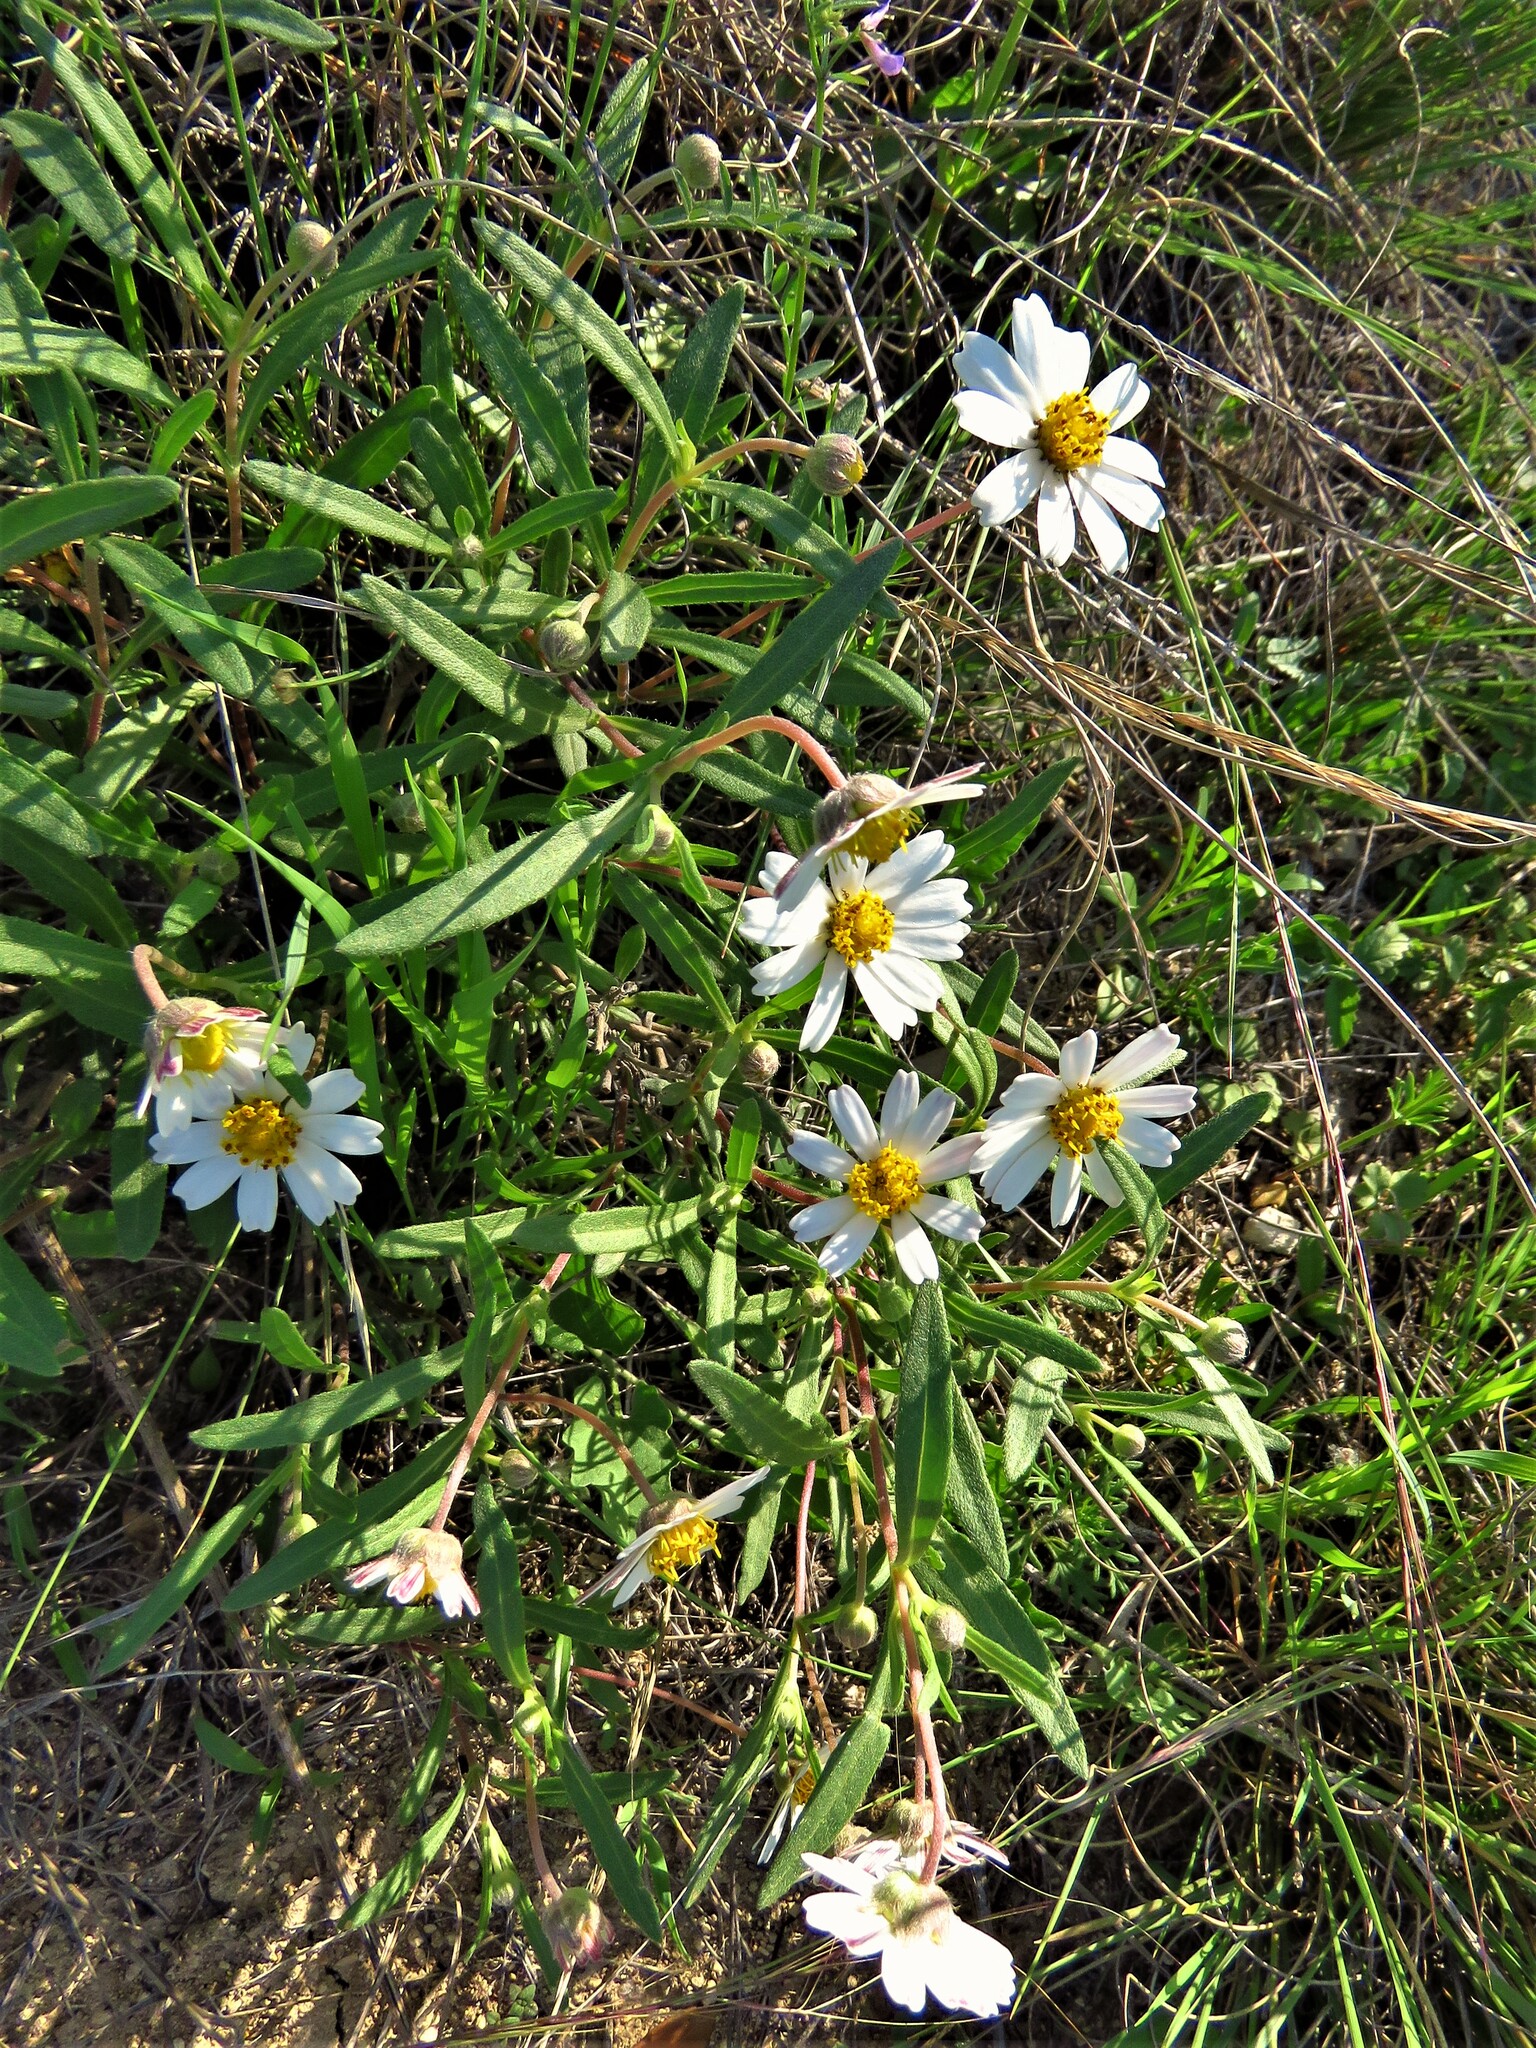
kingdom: Plantae
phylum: Tracheophyta
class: Magnoliopsida
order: Asterales
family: Asteraceae
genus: Melampodium
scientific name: Melampodium leucanthum
